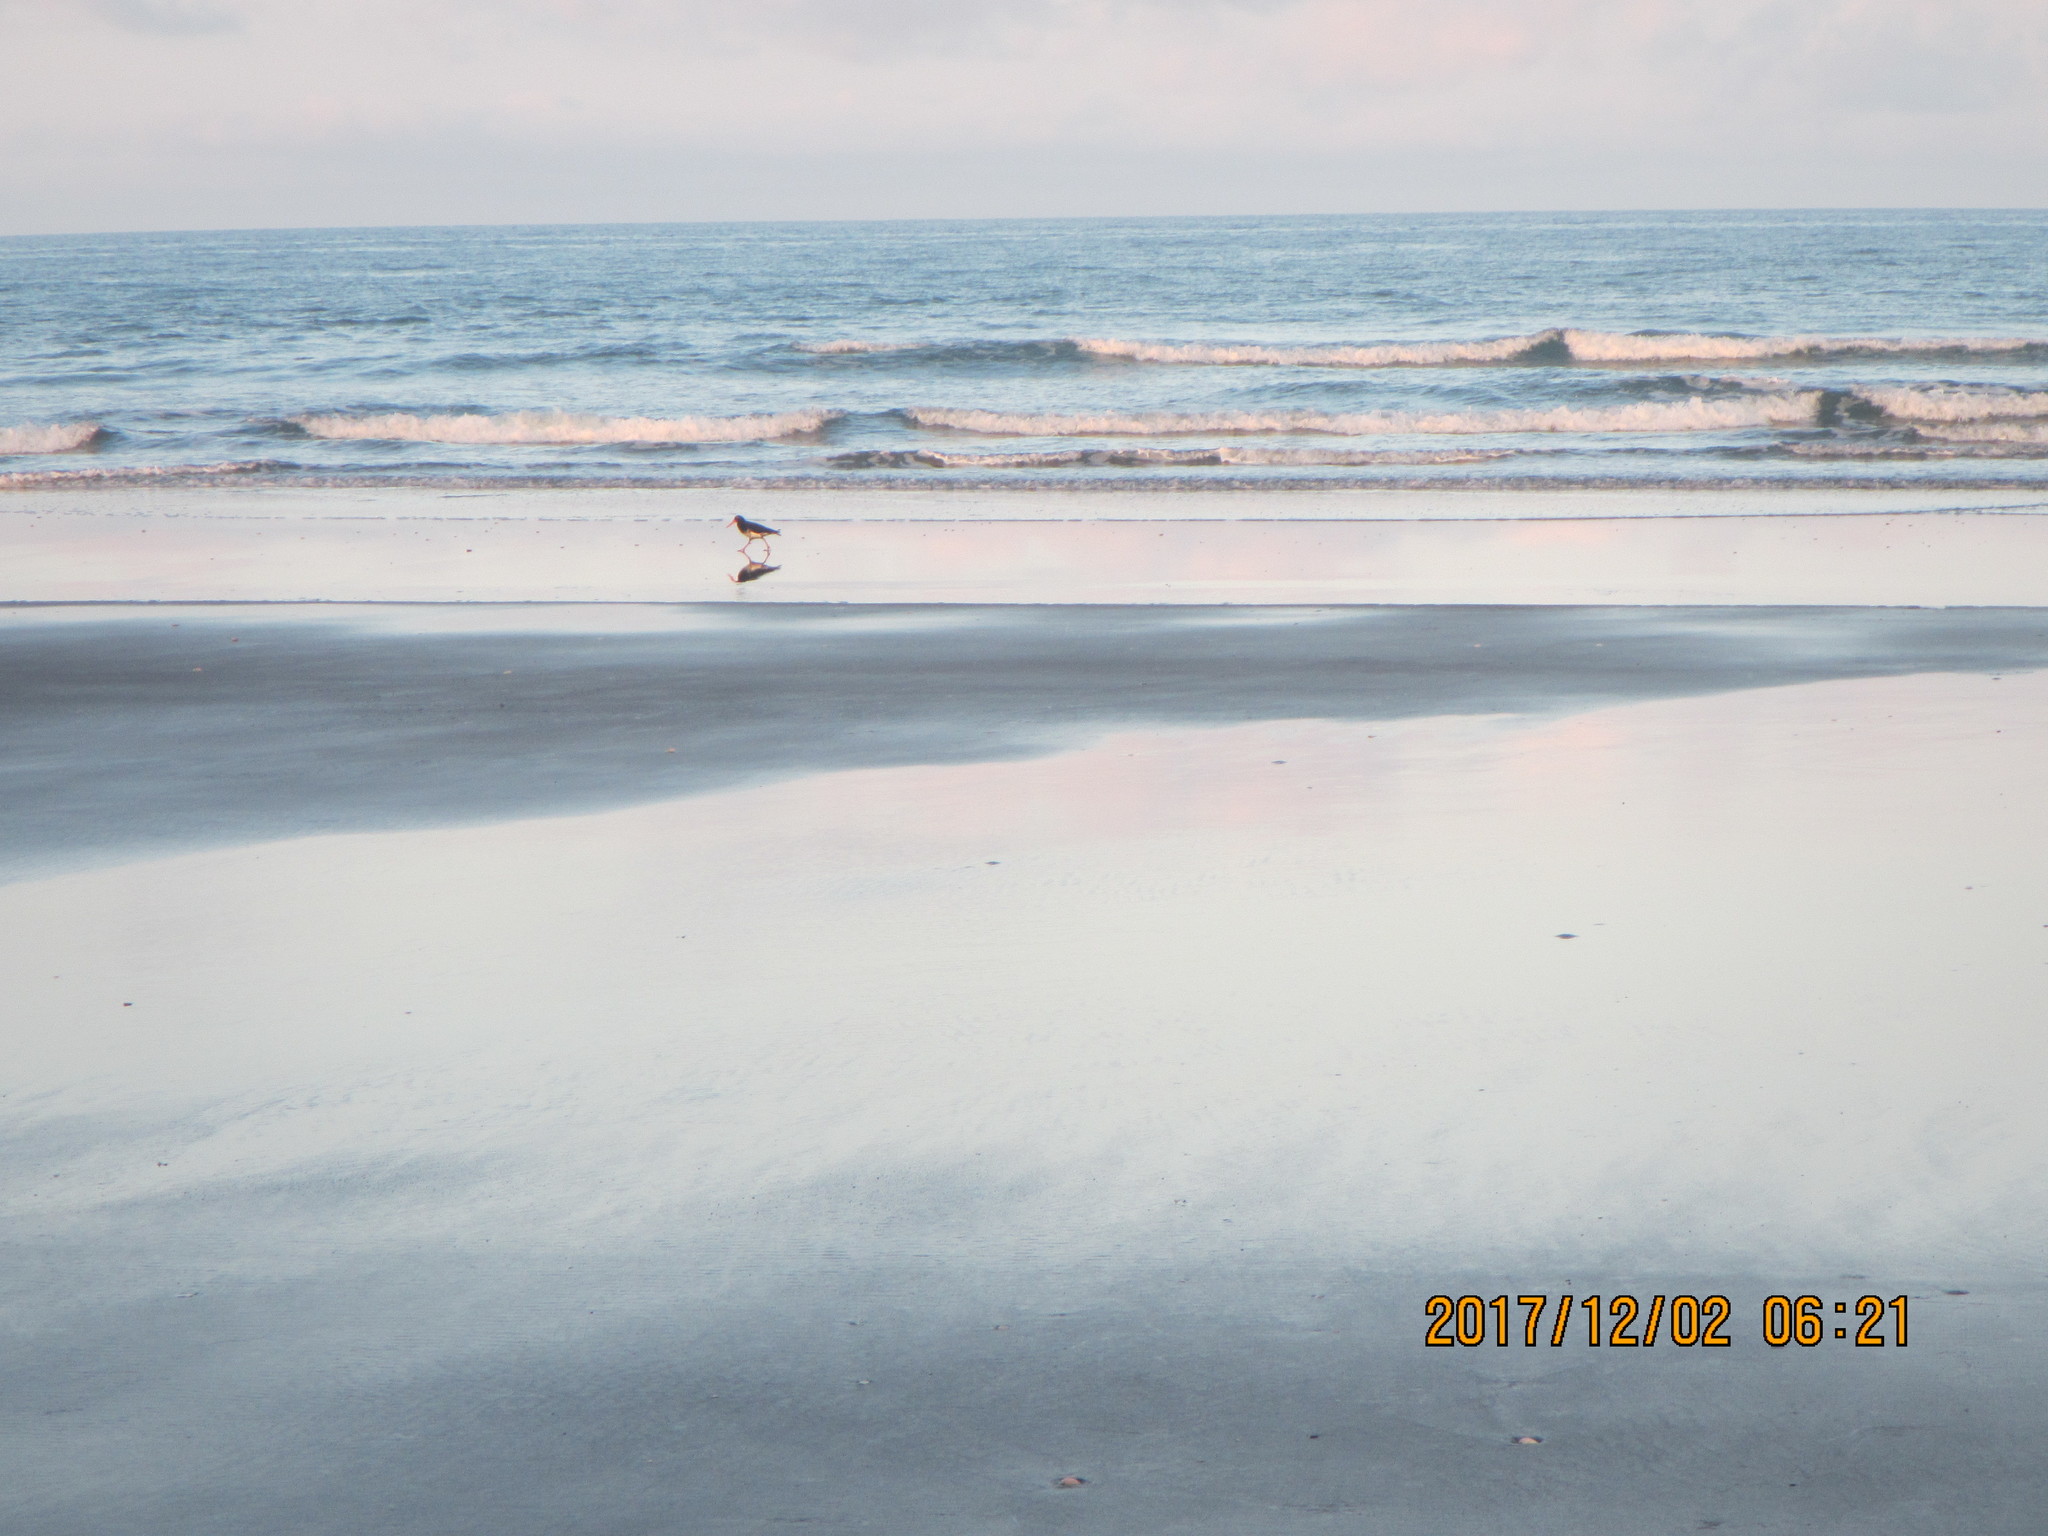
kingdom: Animalia
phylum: Chordata
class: Aves
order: Charadriiformes
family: Haematopodidae
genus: Haematopus
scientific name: Haematopus unicolor
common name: Variable oystercatcher
